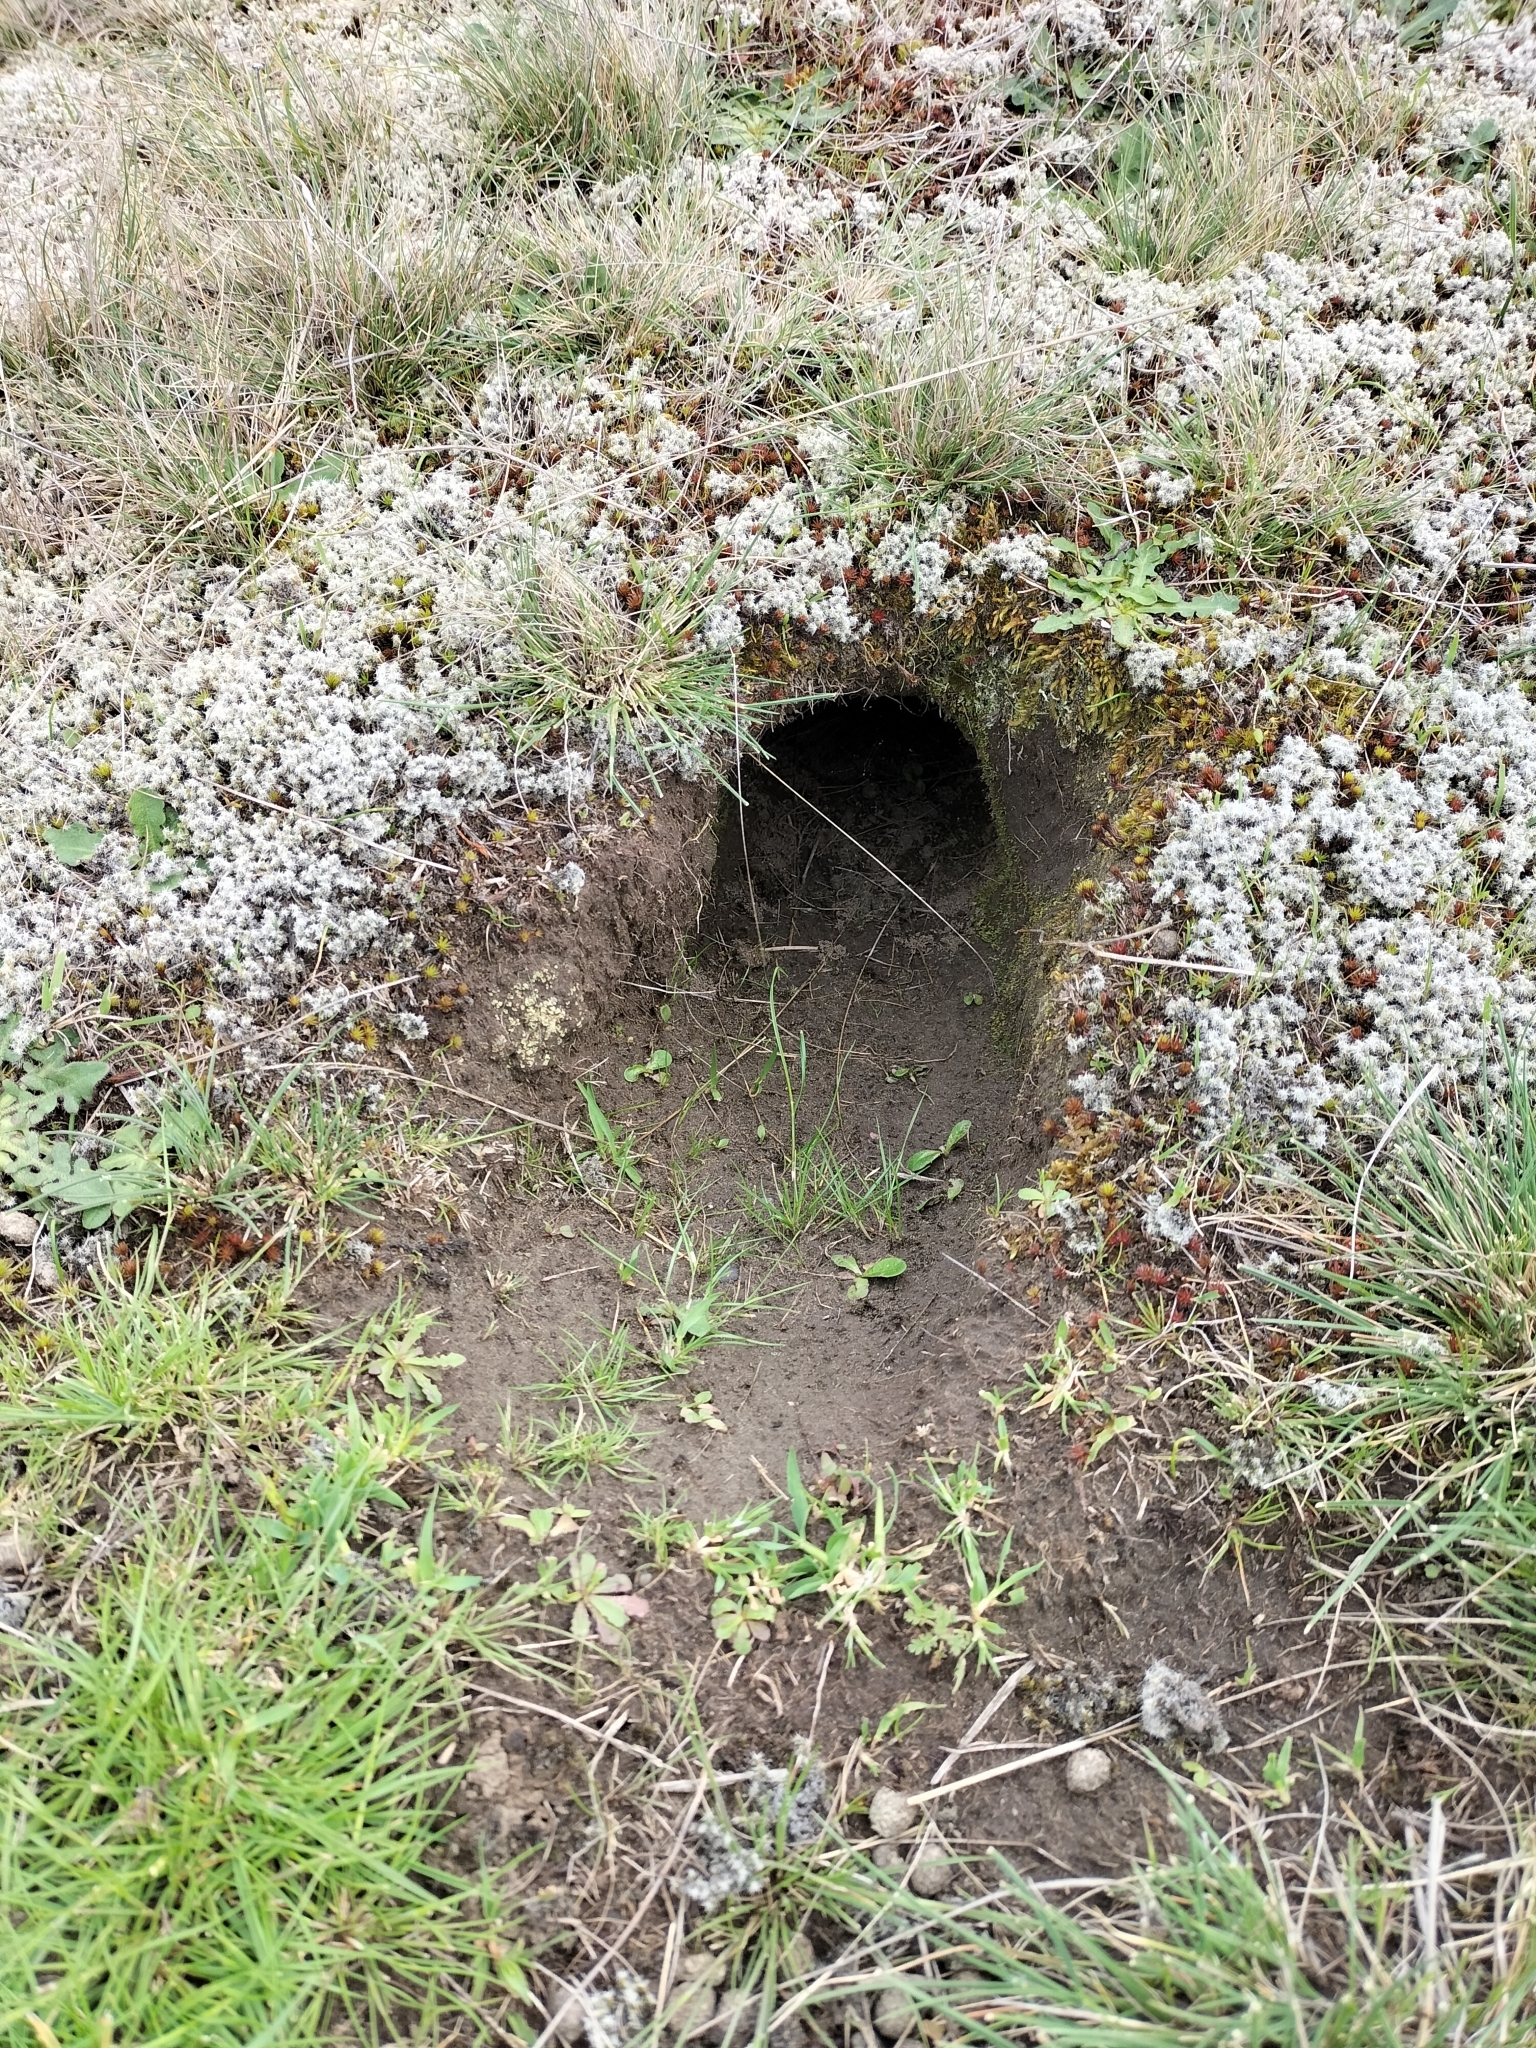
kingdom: Animalia
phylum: Chordata
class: Mammalia
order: Lagomorpha
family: Leporidae
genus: Oryctolagus
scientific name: Oryctolagus cuniculus
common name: European rabbit
